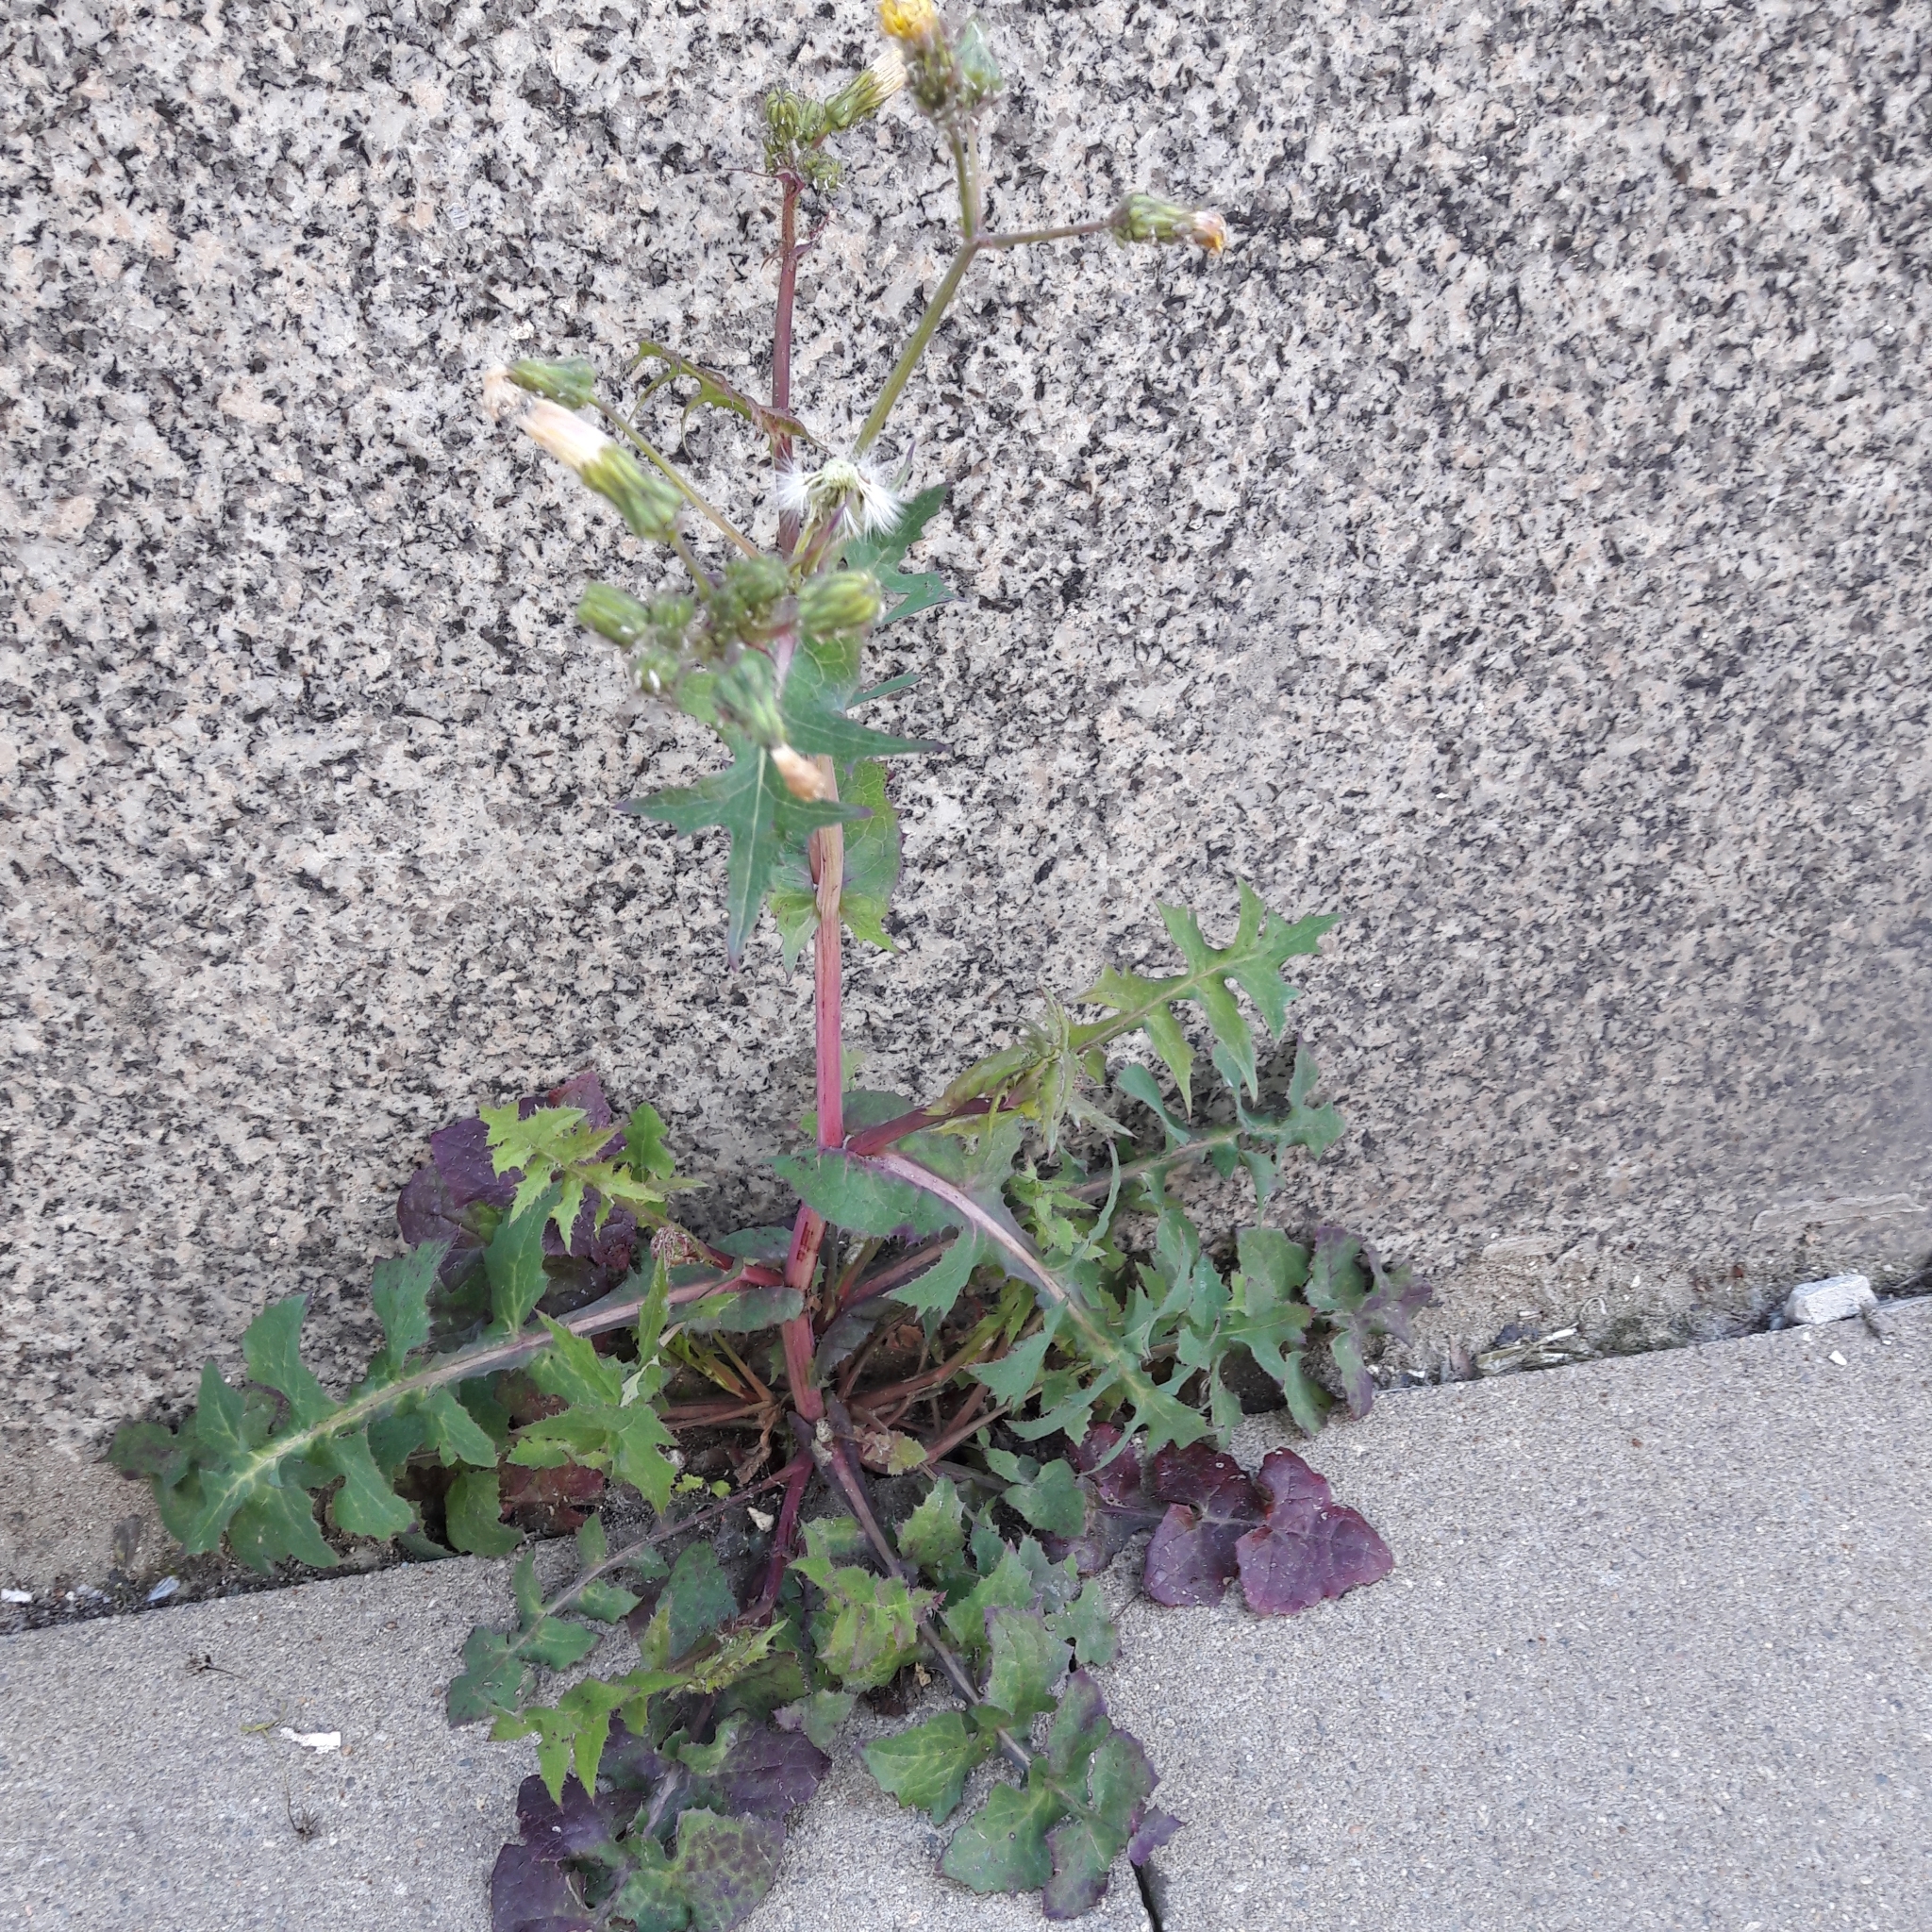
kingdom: Plantae
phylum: Tracheophyta
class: Magnoliopsida
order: Asterales
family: Asteraceae
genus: Sonchus
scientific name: Sonchus oleraceus
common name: Common sowthistle
